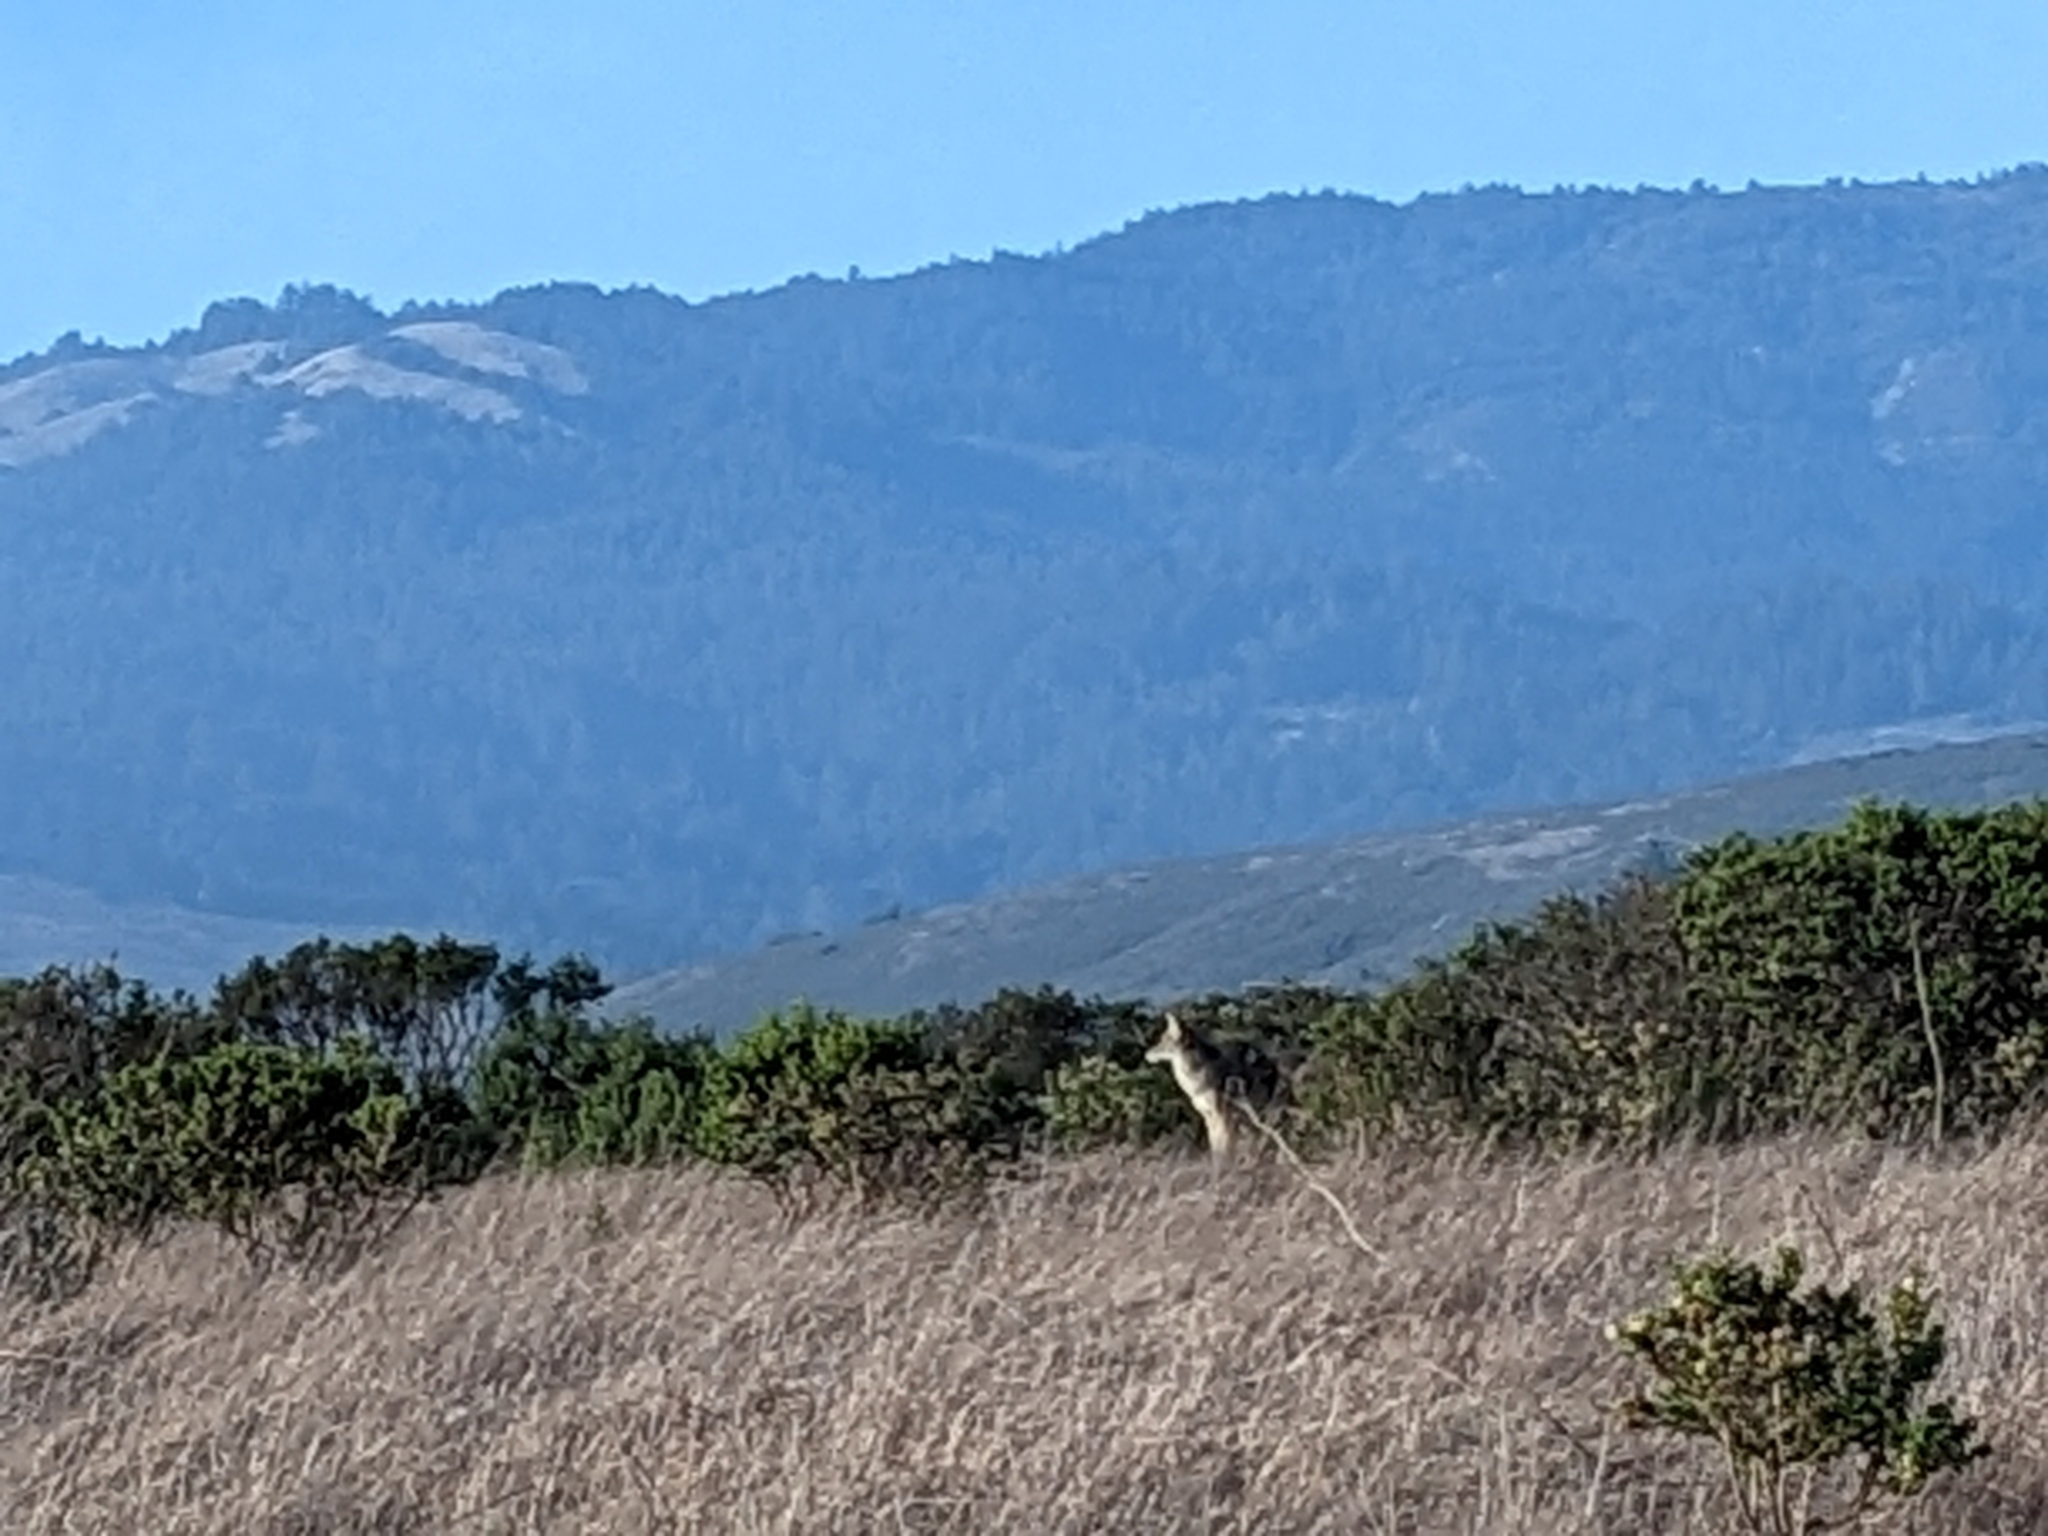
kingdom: Animalia
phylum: Chordata
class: Mammalia
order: Carnivora
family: Canidae
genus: Canis
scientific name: Canis latrans
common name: Coyote
